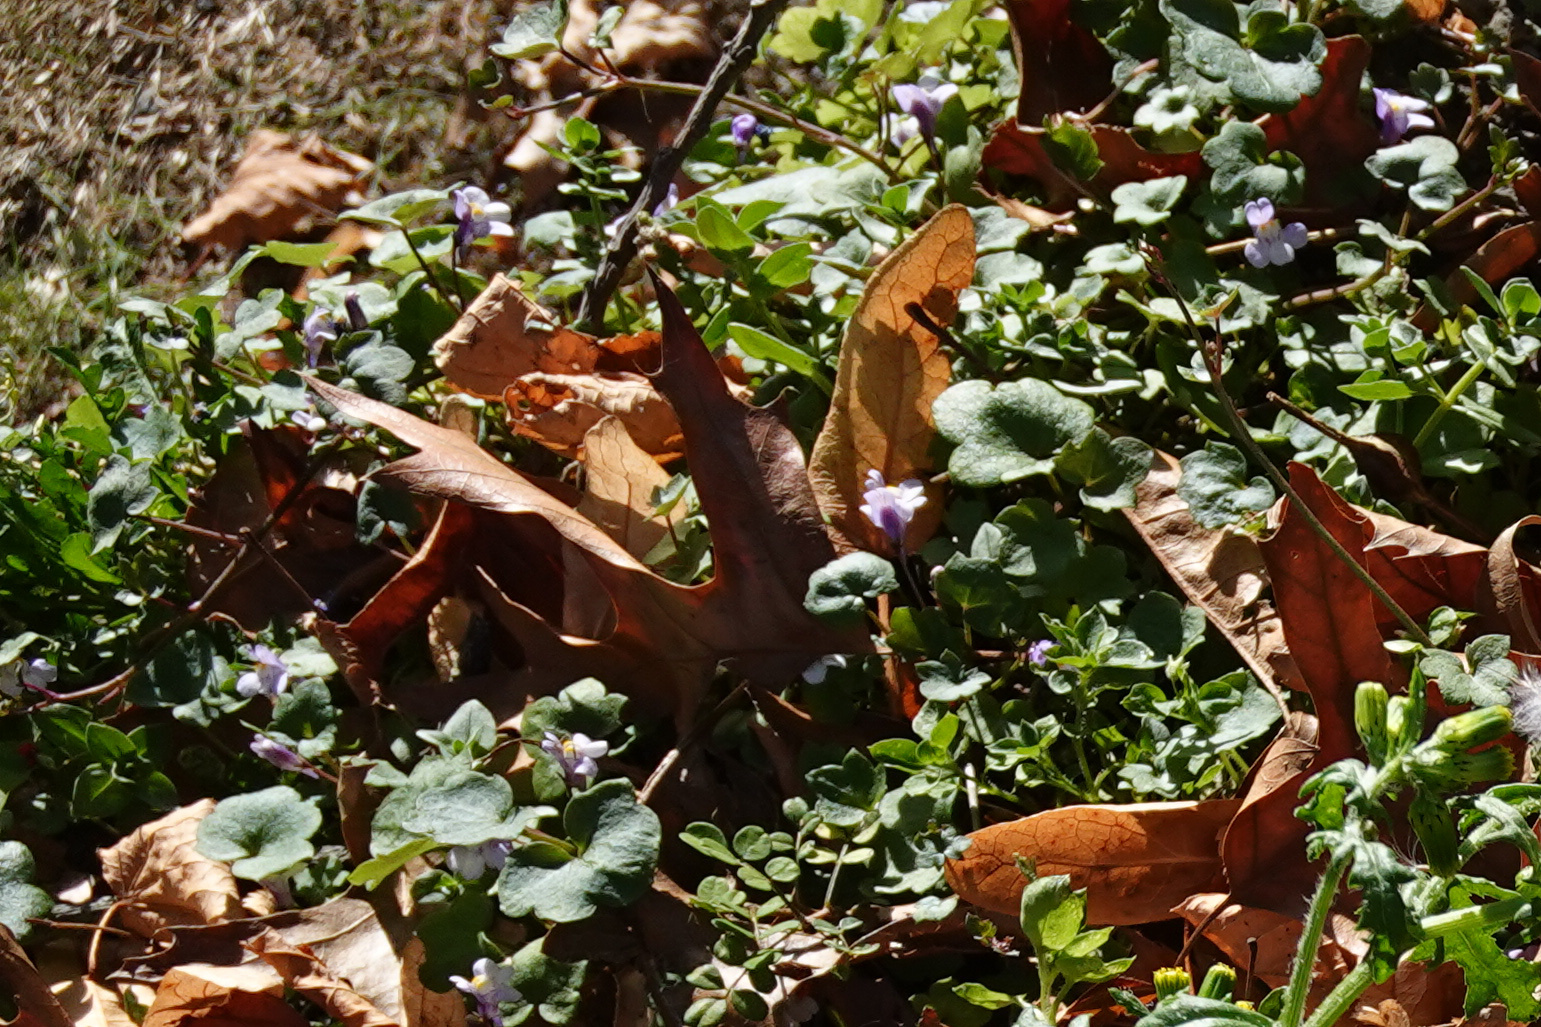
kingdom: Plantae
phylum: Tracheophyta
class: Magnoliopsida
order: Lamiales
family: Plantaginaceae
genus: Cymbalaria
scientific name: Cymbalaria muralis
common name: Ivy-leaved toadflax
